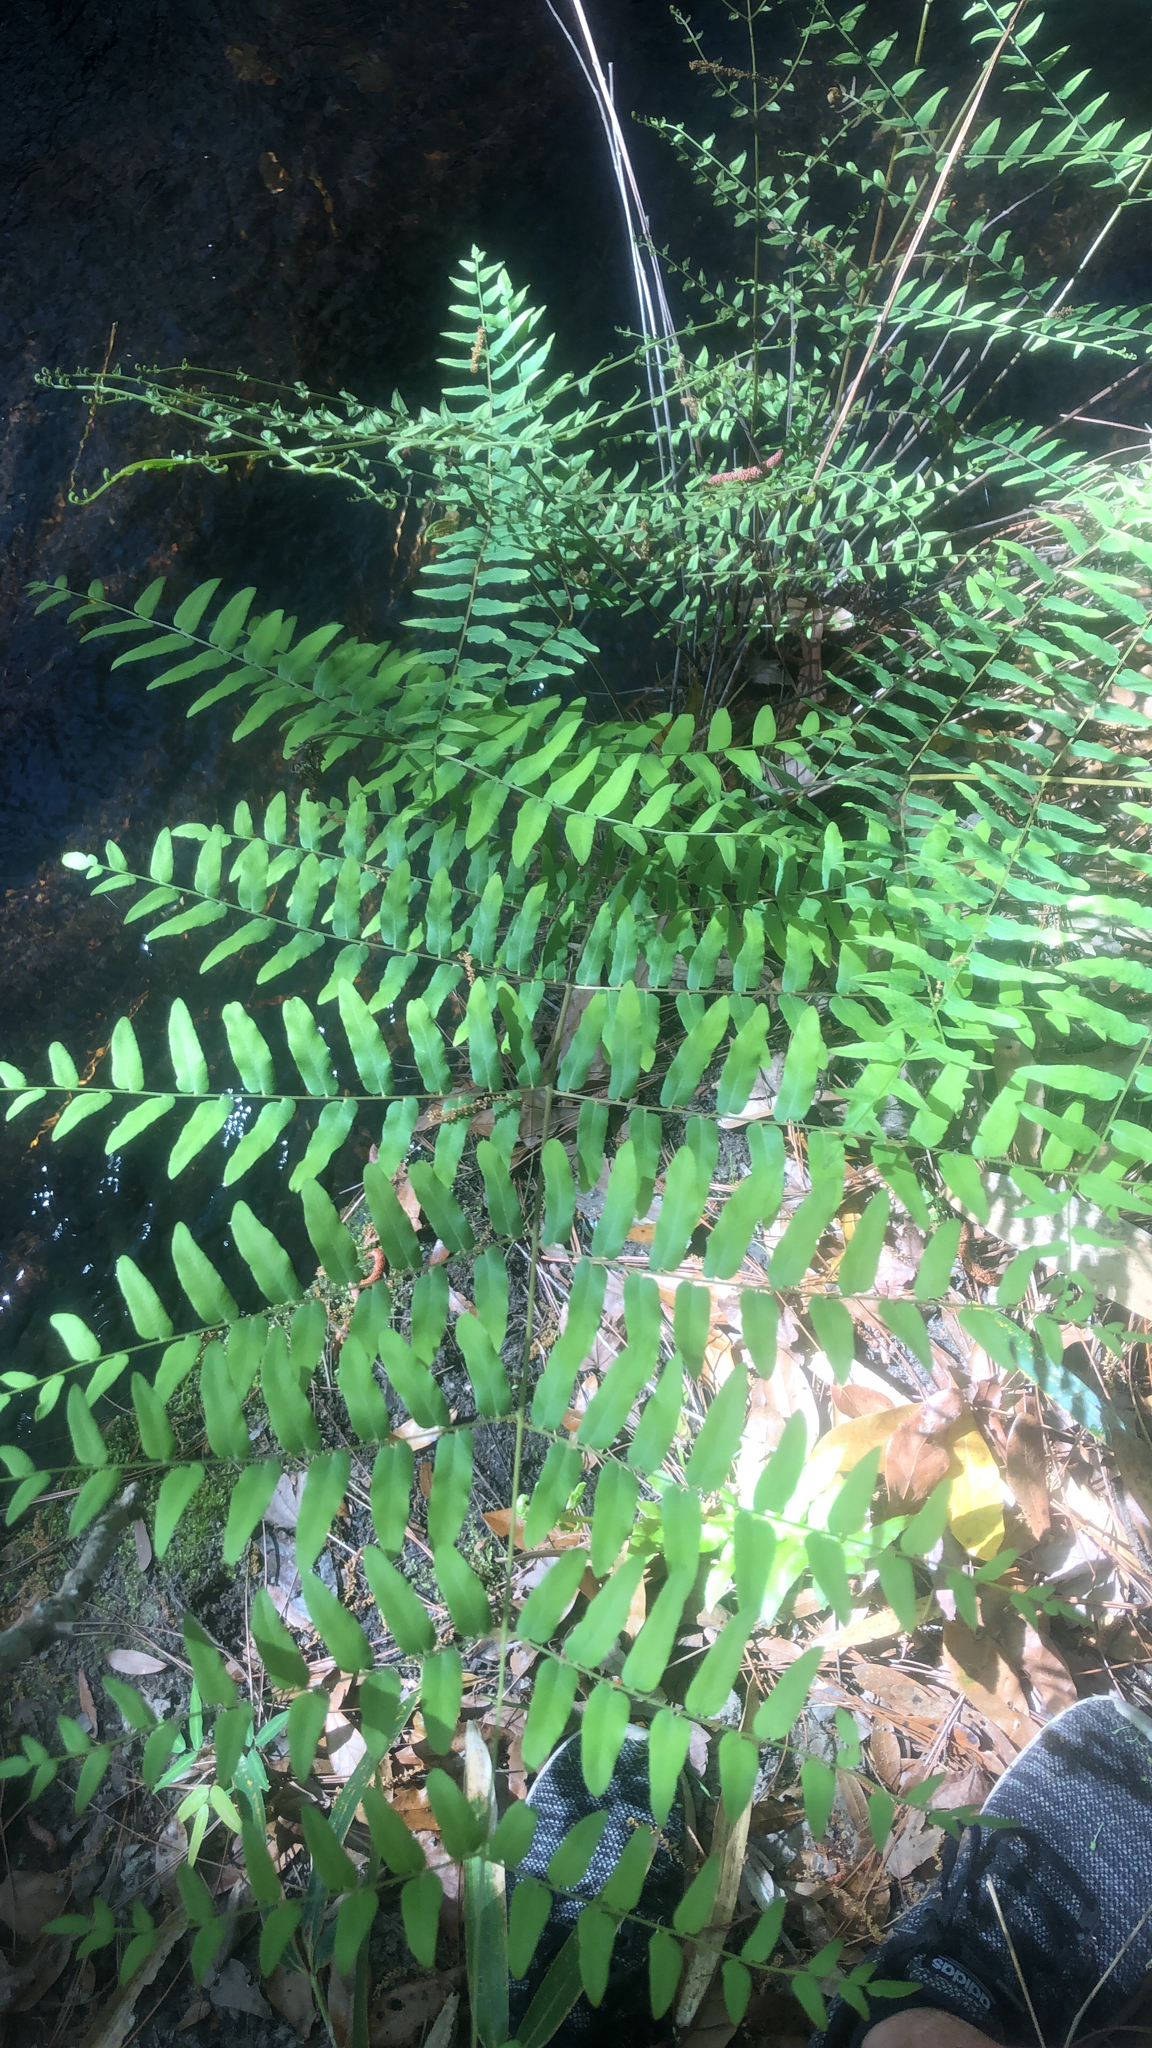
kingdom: Plantae
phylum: Tracheophyta
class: Polypodiopsida
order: Osmundales
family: Osmundaceae
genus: Osmunda
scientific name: Osmunda spectabilis
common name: American royal fern
